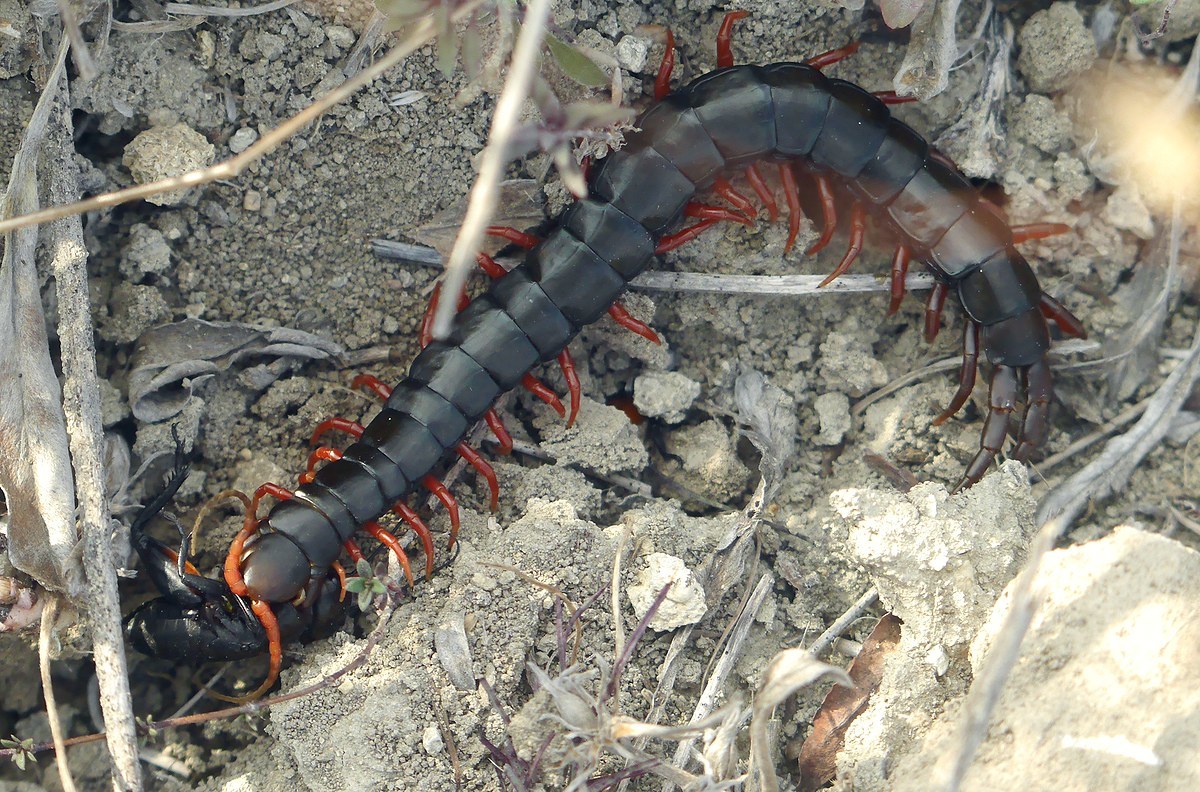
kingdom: Animalia
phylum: Arthropoda
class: Chilopoda
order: Scolopendromorpha
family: Scolopendridae
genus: Scolopendra
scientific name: Scolopendra cingulata
